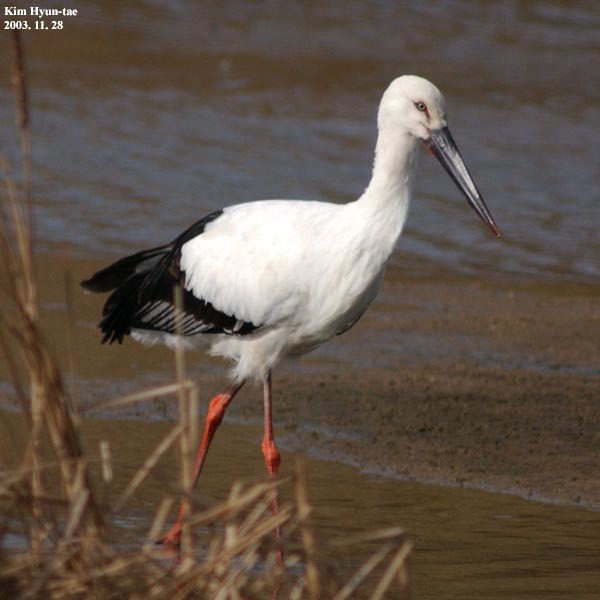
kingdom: Animalia
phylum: Chordata
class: Aves
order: Ciconiiformes
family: Ciconiidae
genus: Ciconia
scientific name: Ciconia boyciana
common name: Oriental stork
